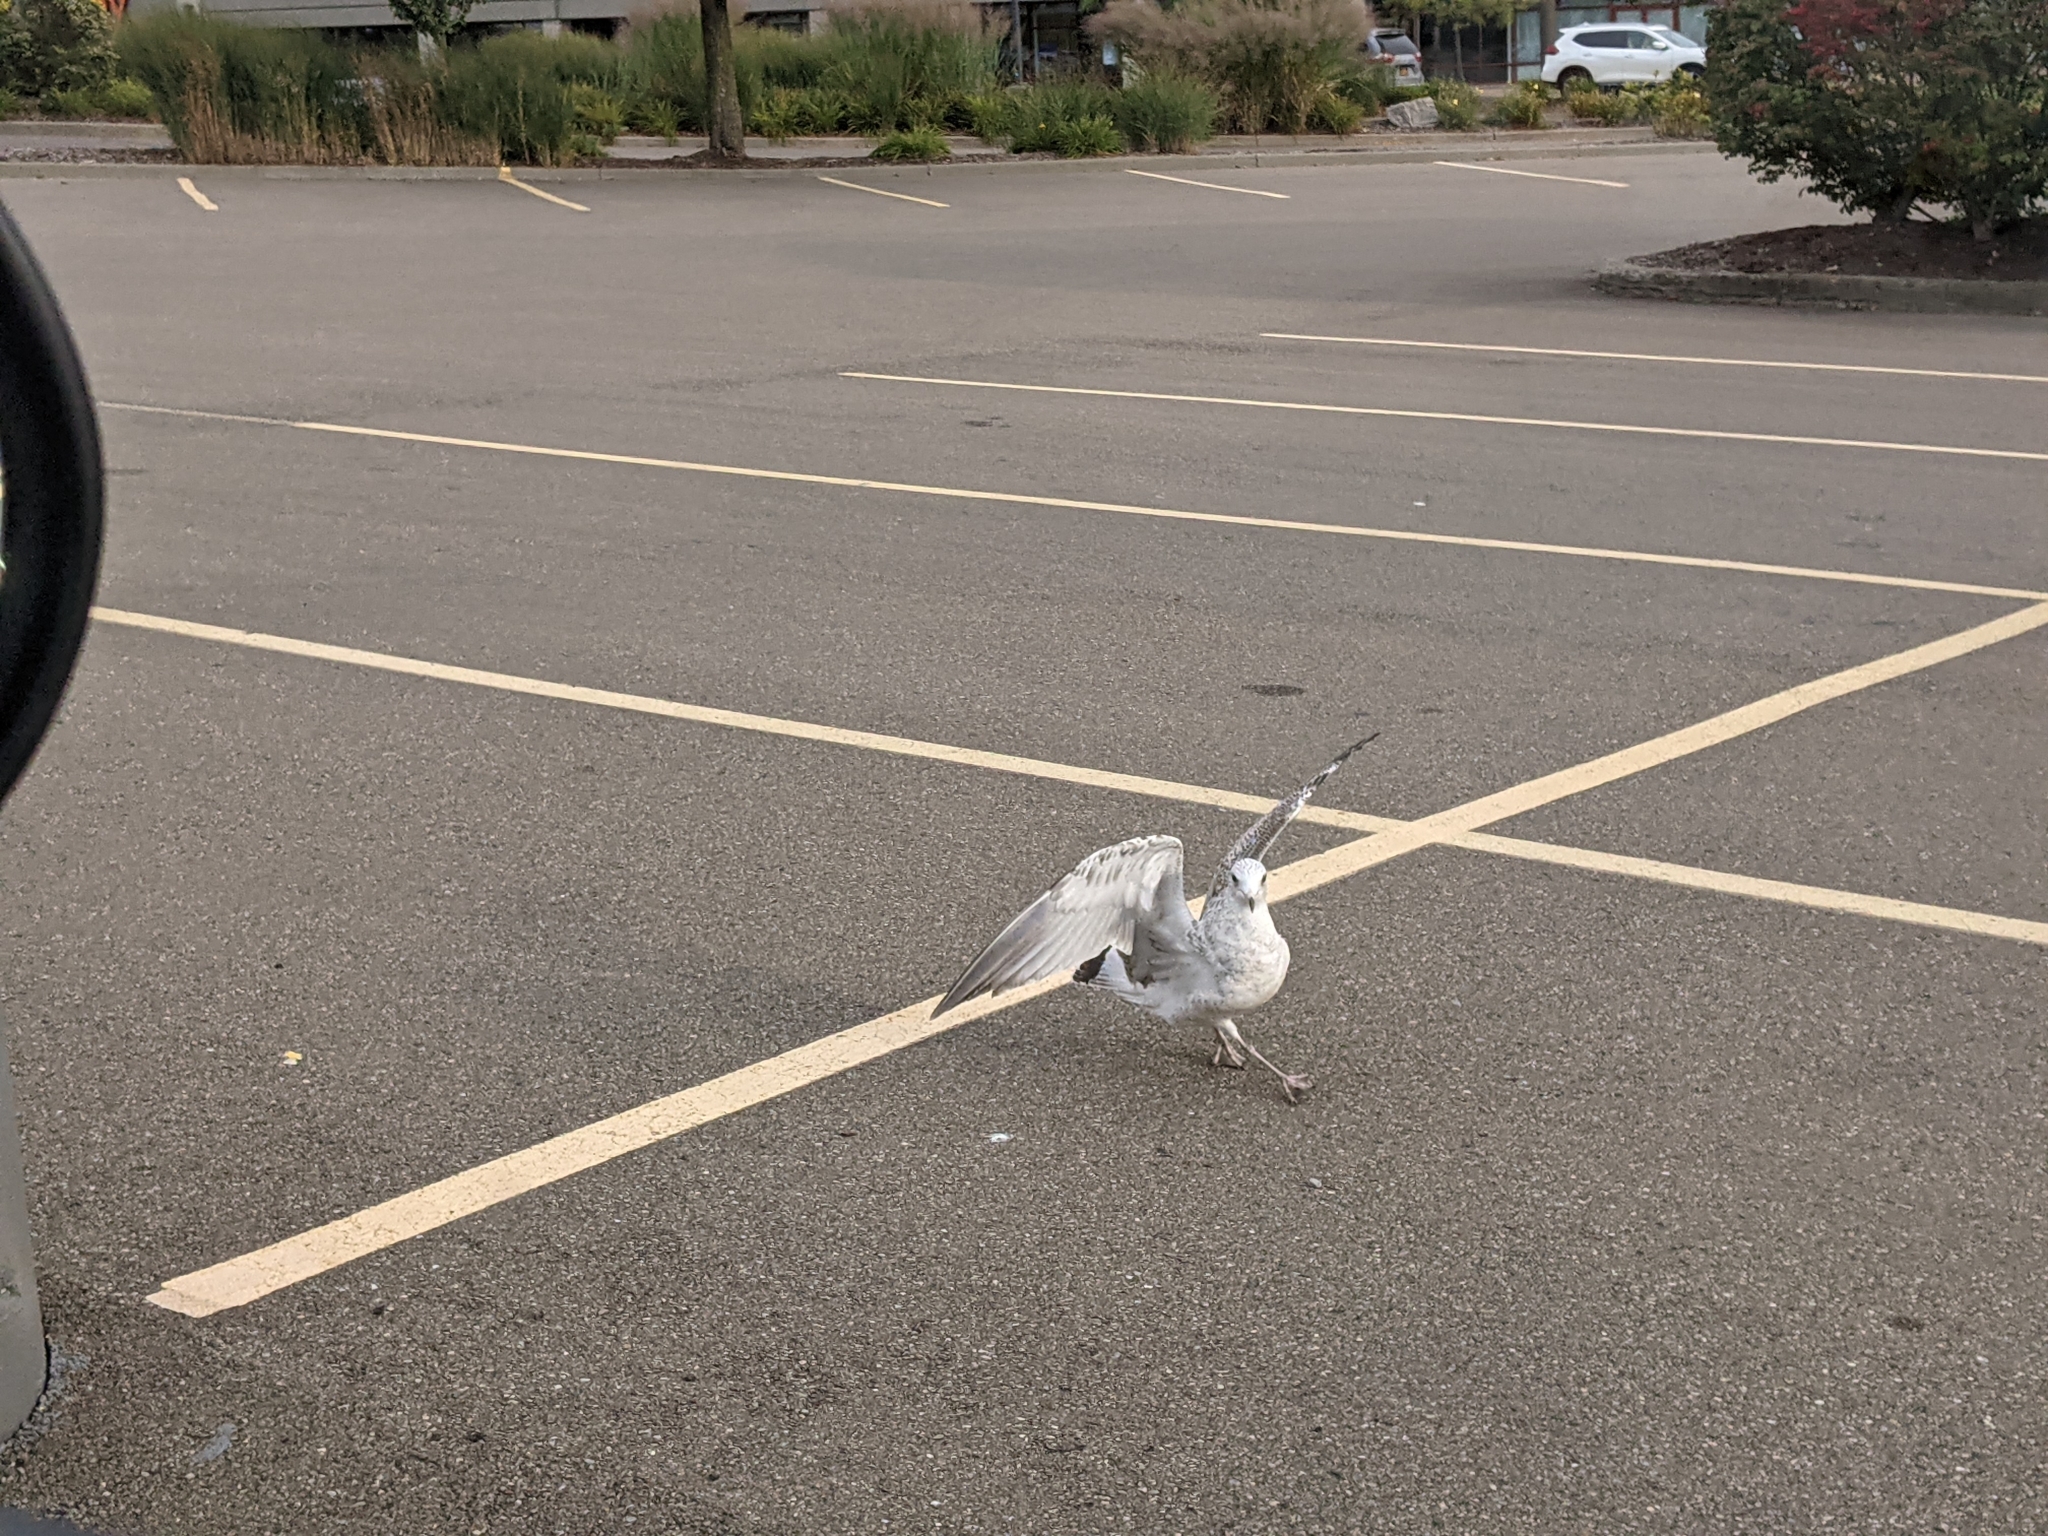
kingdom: Animalia
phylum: Chordata
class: Aves
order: Charadriiformes
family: Laridae
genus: Larus
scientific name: Larus delawarensis
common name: Ring-billed gull
